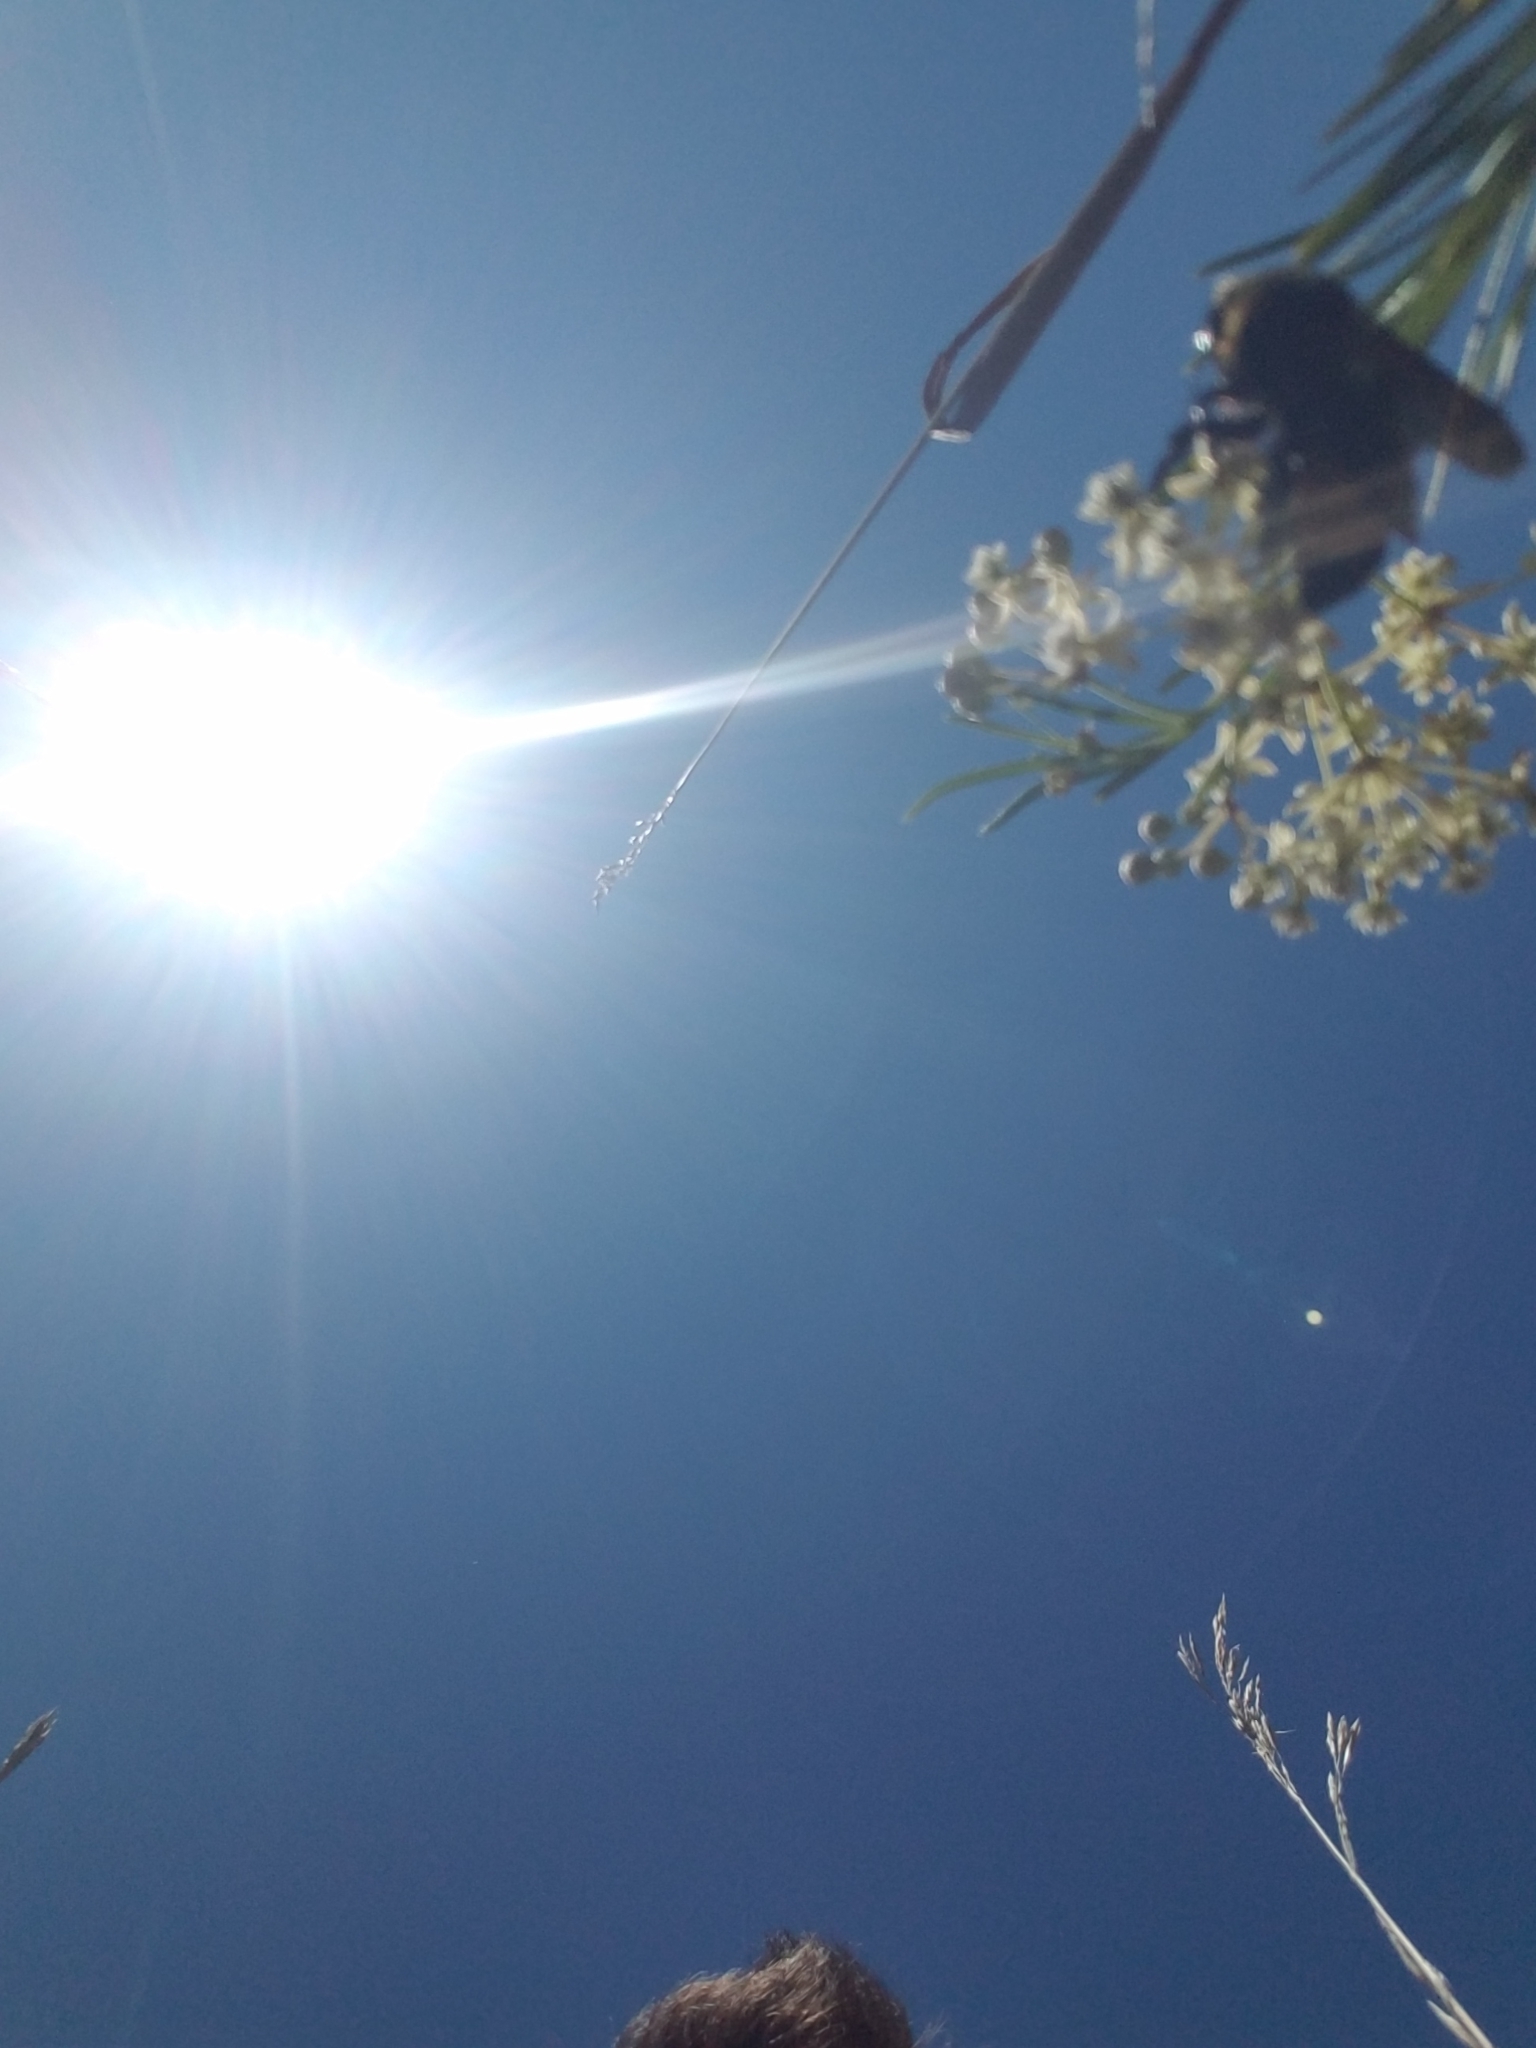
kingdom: Animalia
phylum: Arthropoda
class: Insecta
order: Hymenoptera
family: Apidae
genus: Bombus
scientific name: Bombus auricomus
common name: Black and gold bumble bee
